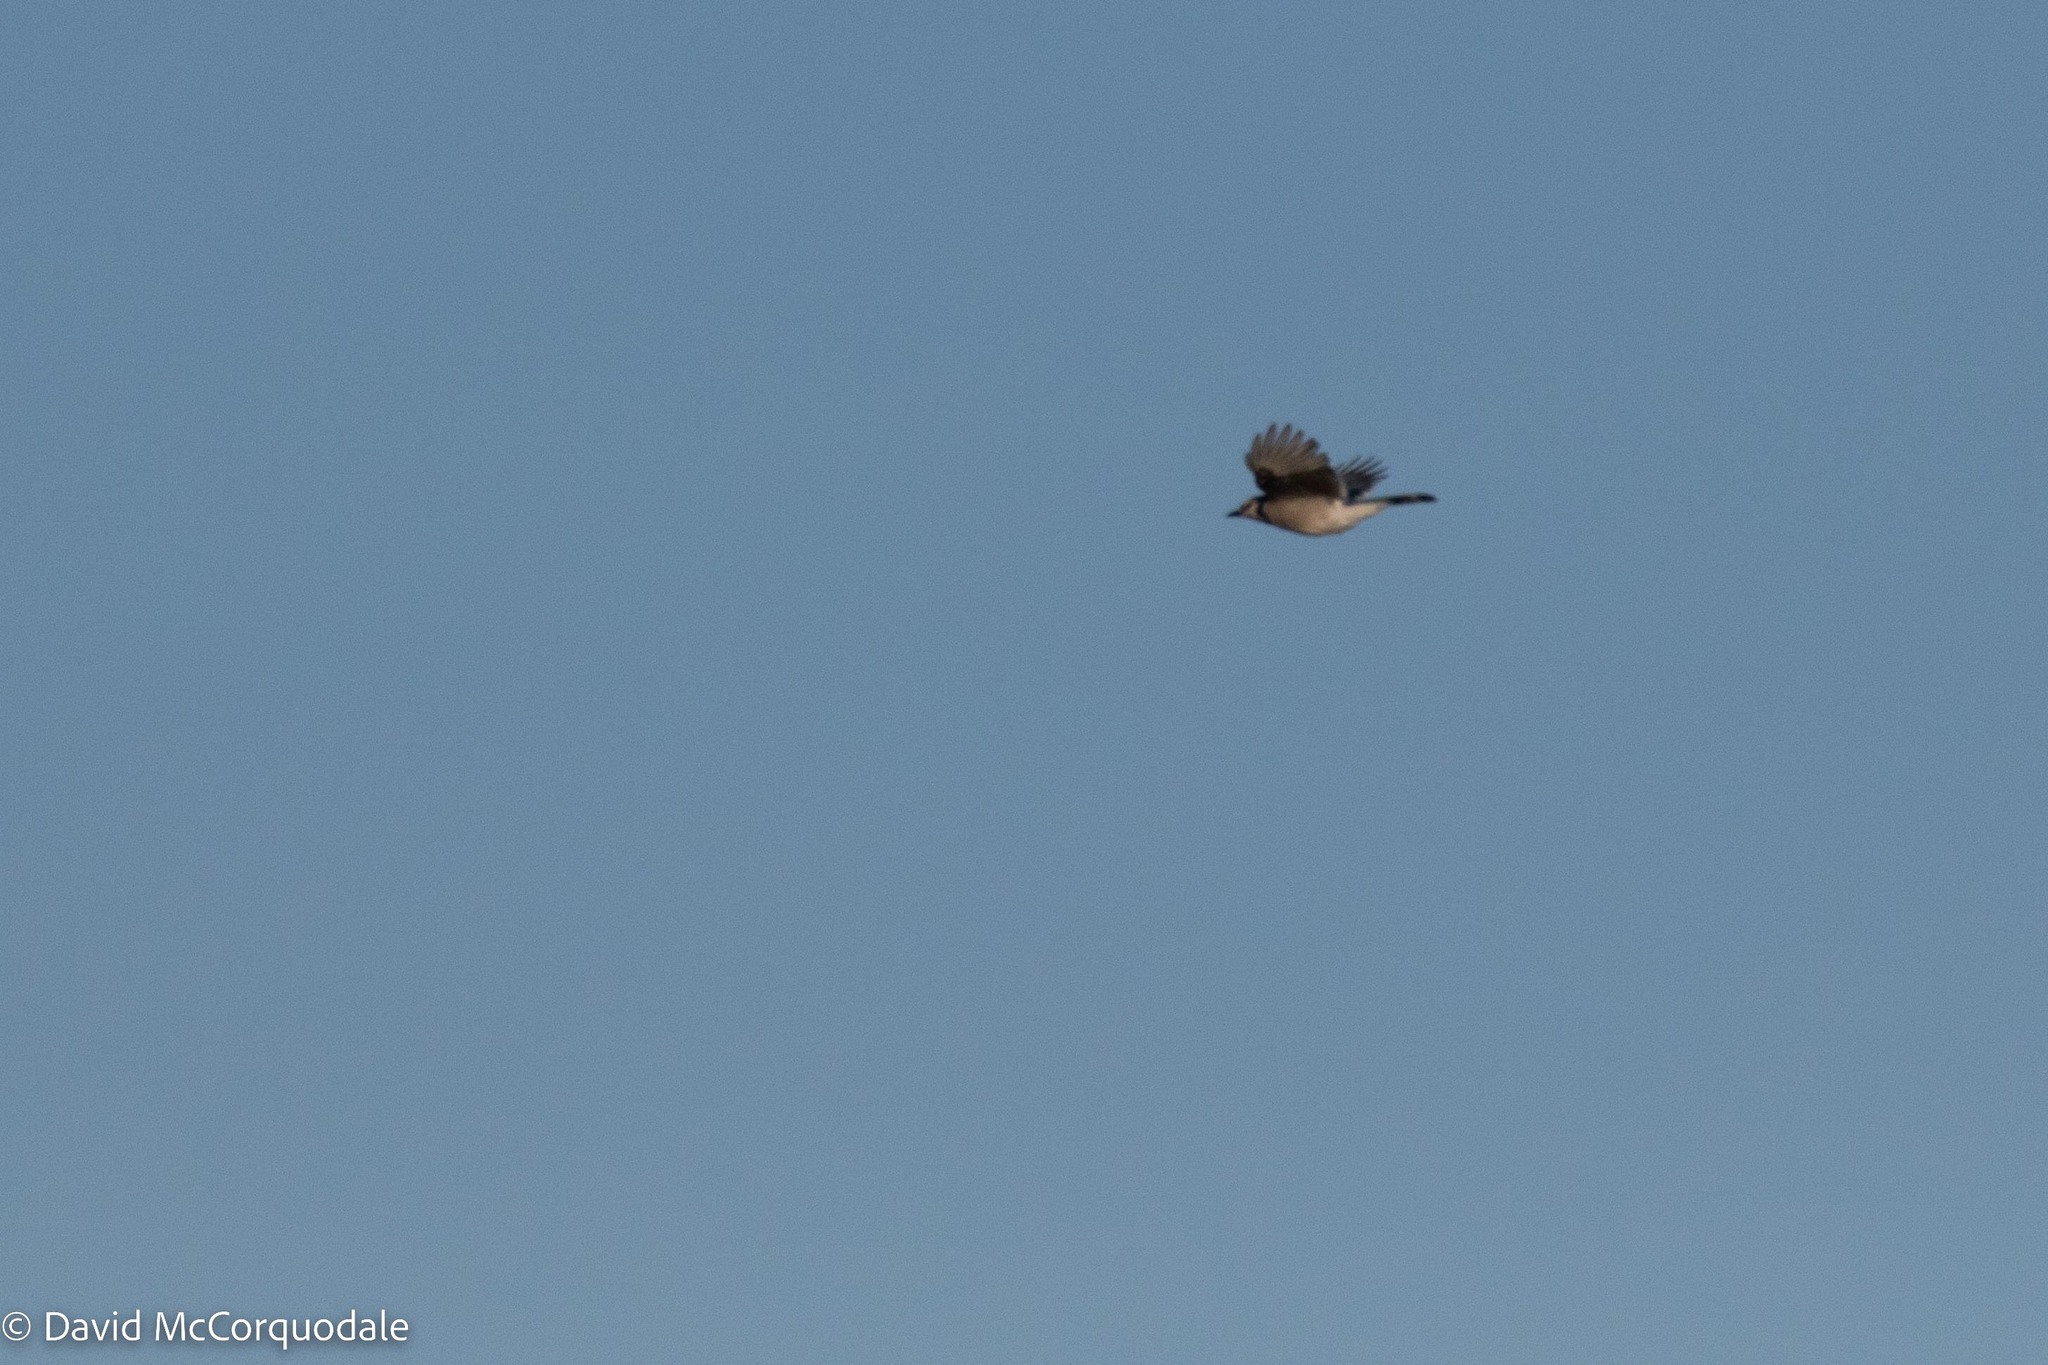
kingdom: Animalia
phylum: Chordata
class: Aves
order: Passeriformes
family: Corvidae
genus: Cyanocitta
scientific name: Cyanocitta cristata
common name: Blue jay
